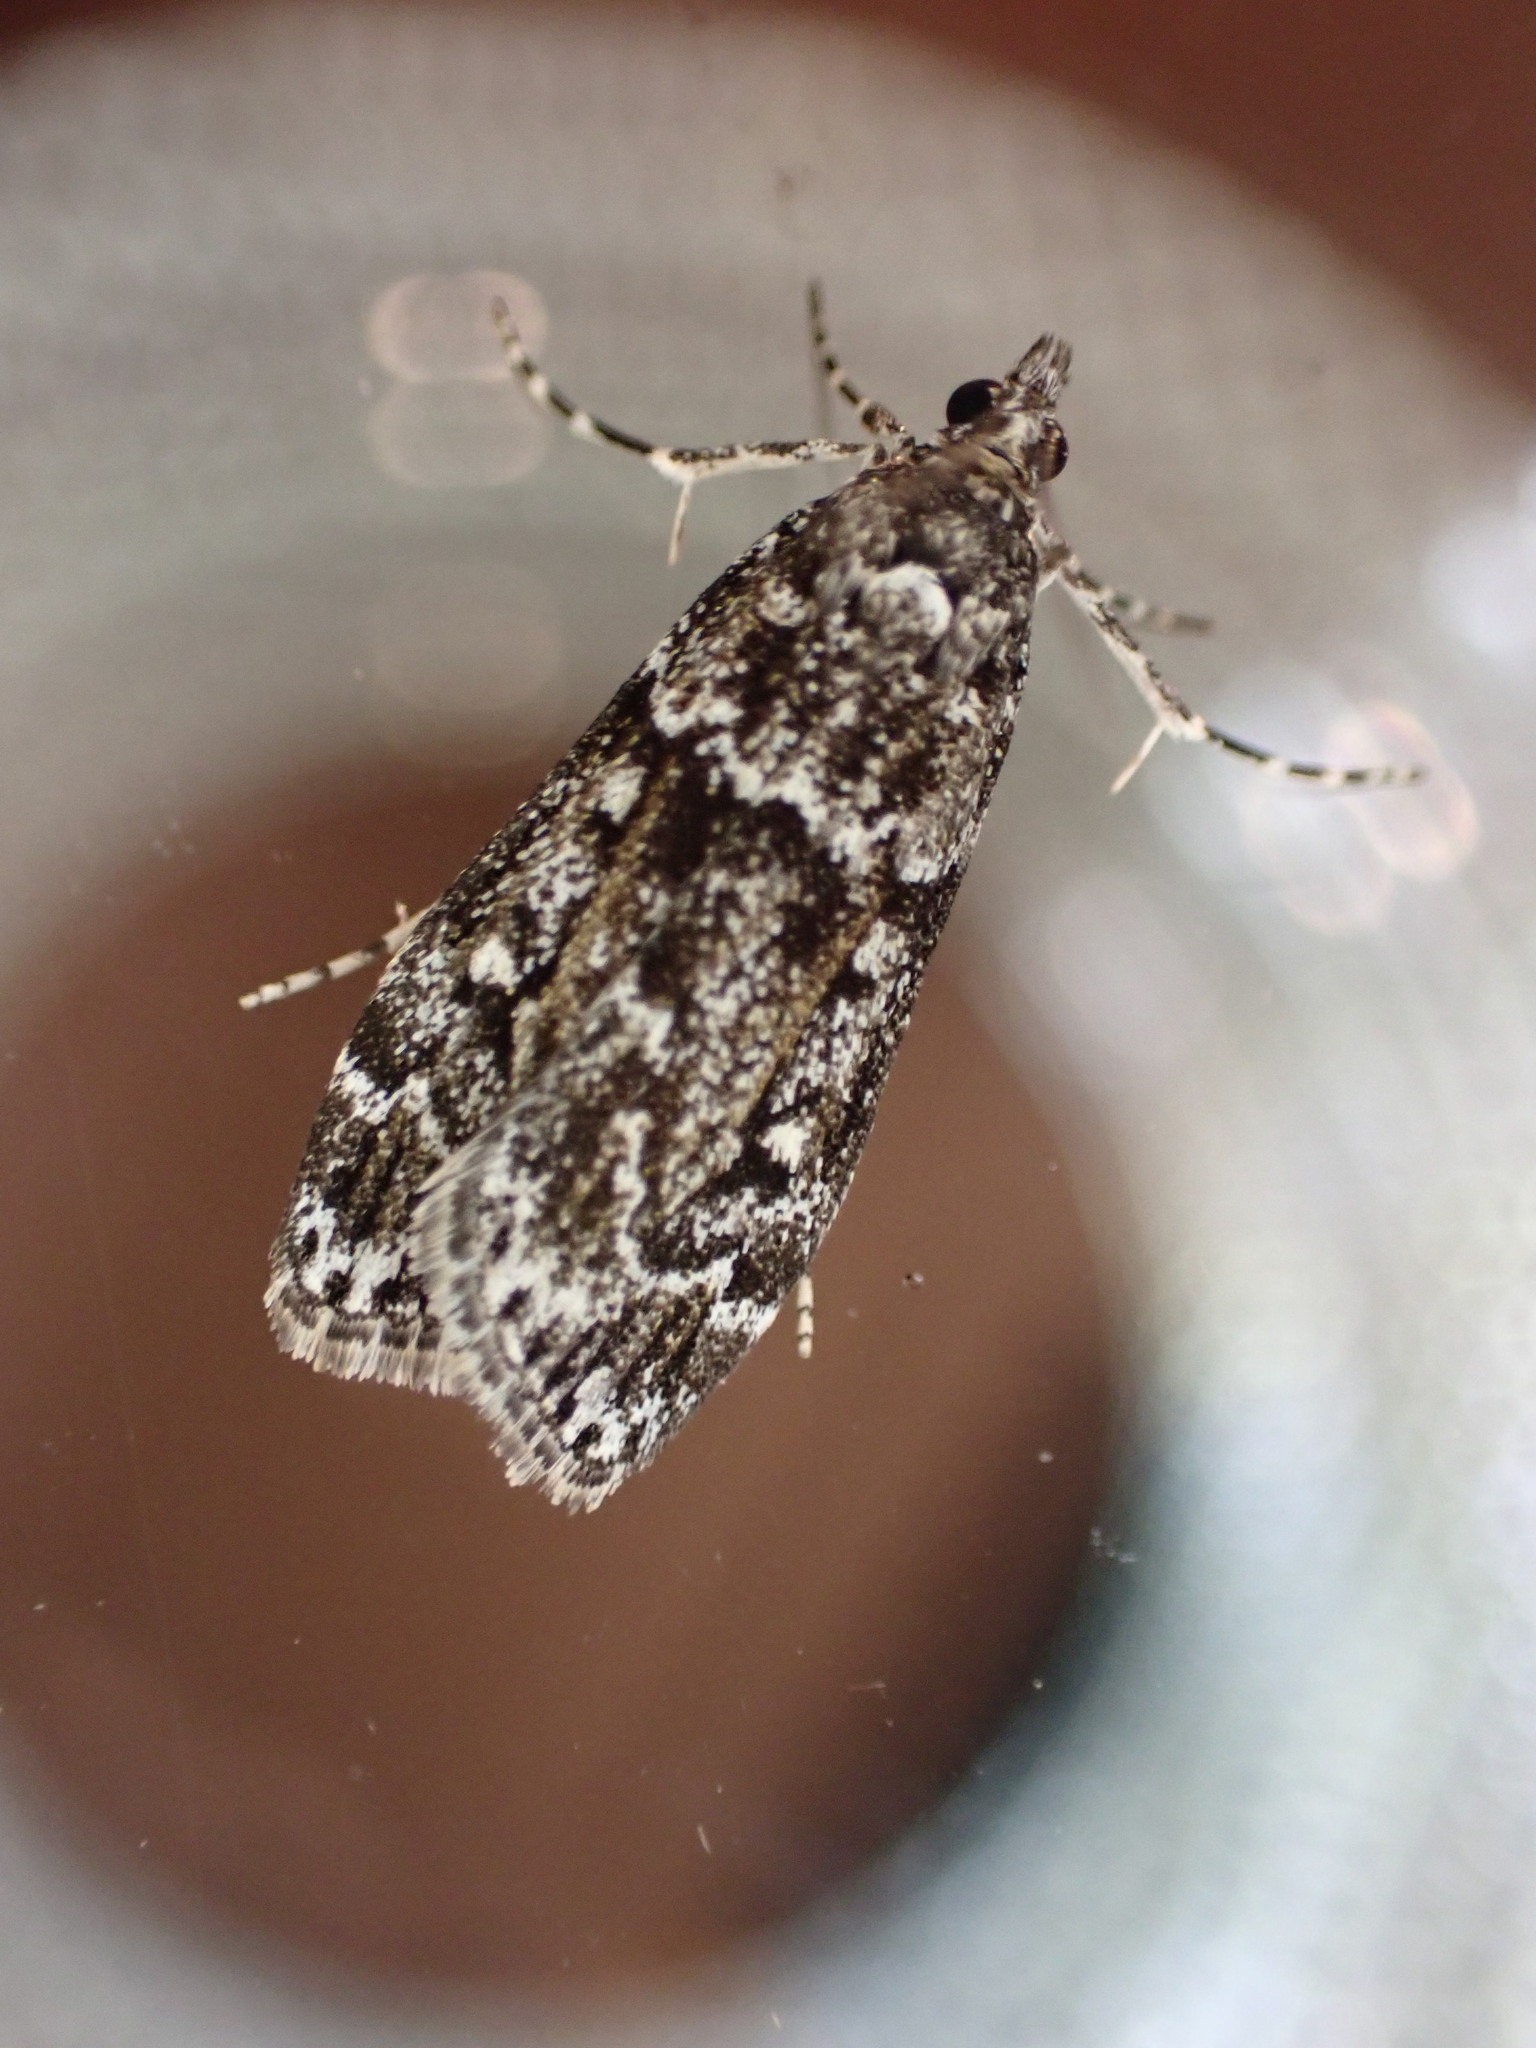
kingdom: Animalia
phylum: Arthropoda
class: Insecta
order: Lepidoptera
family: Crambidae
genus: Eudonia
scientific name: Eudonia philerga
